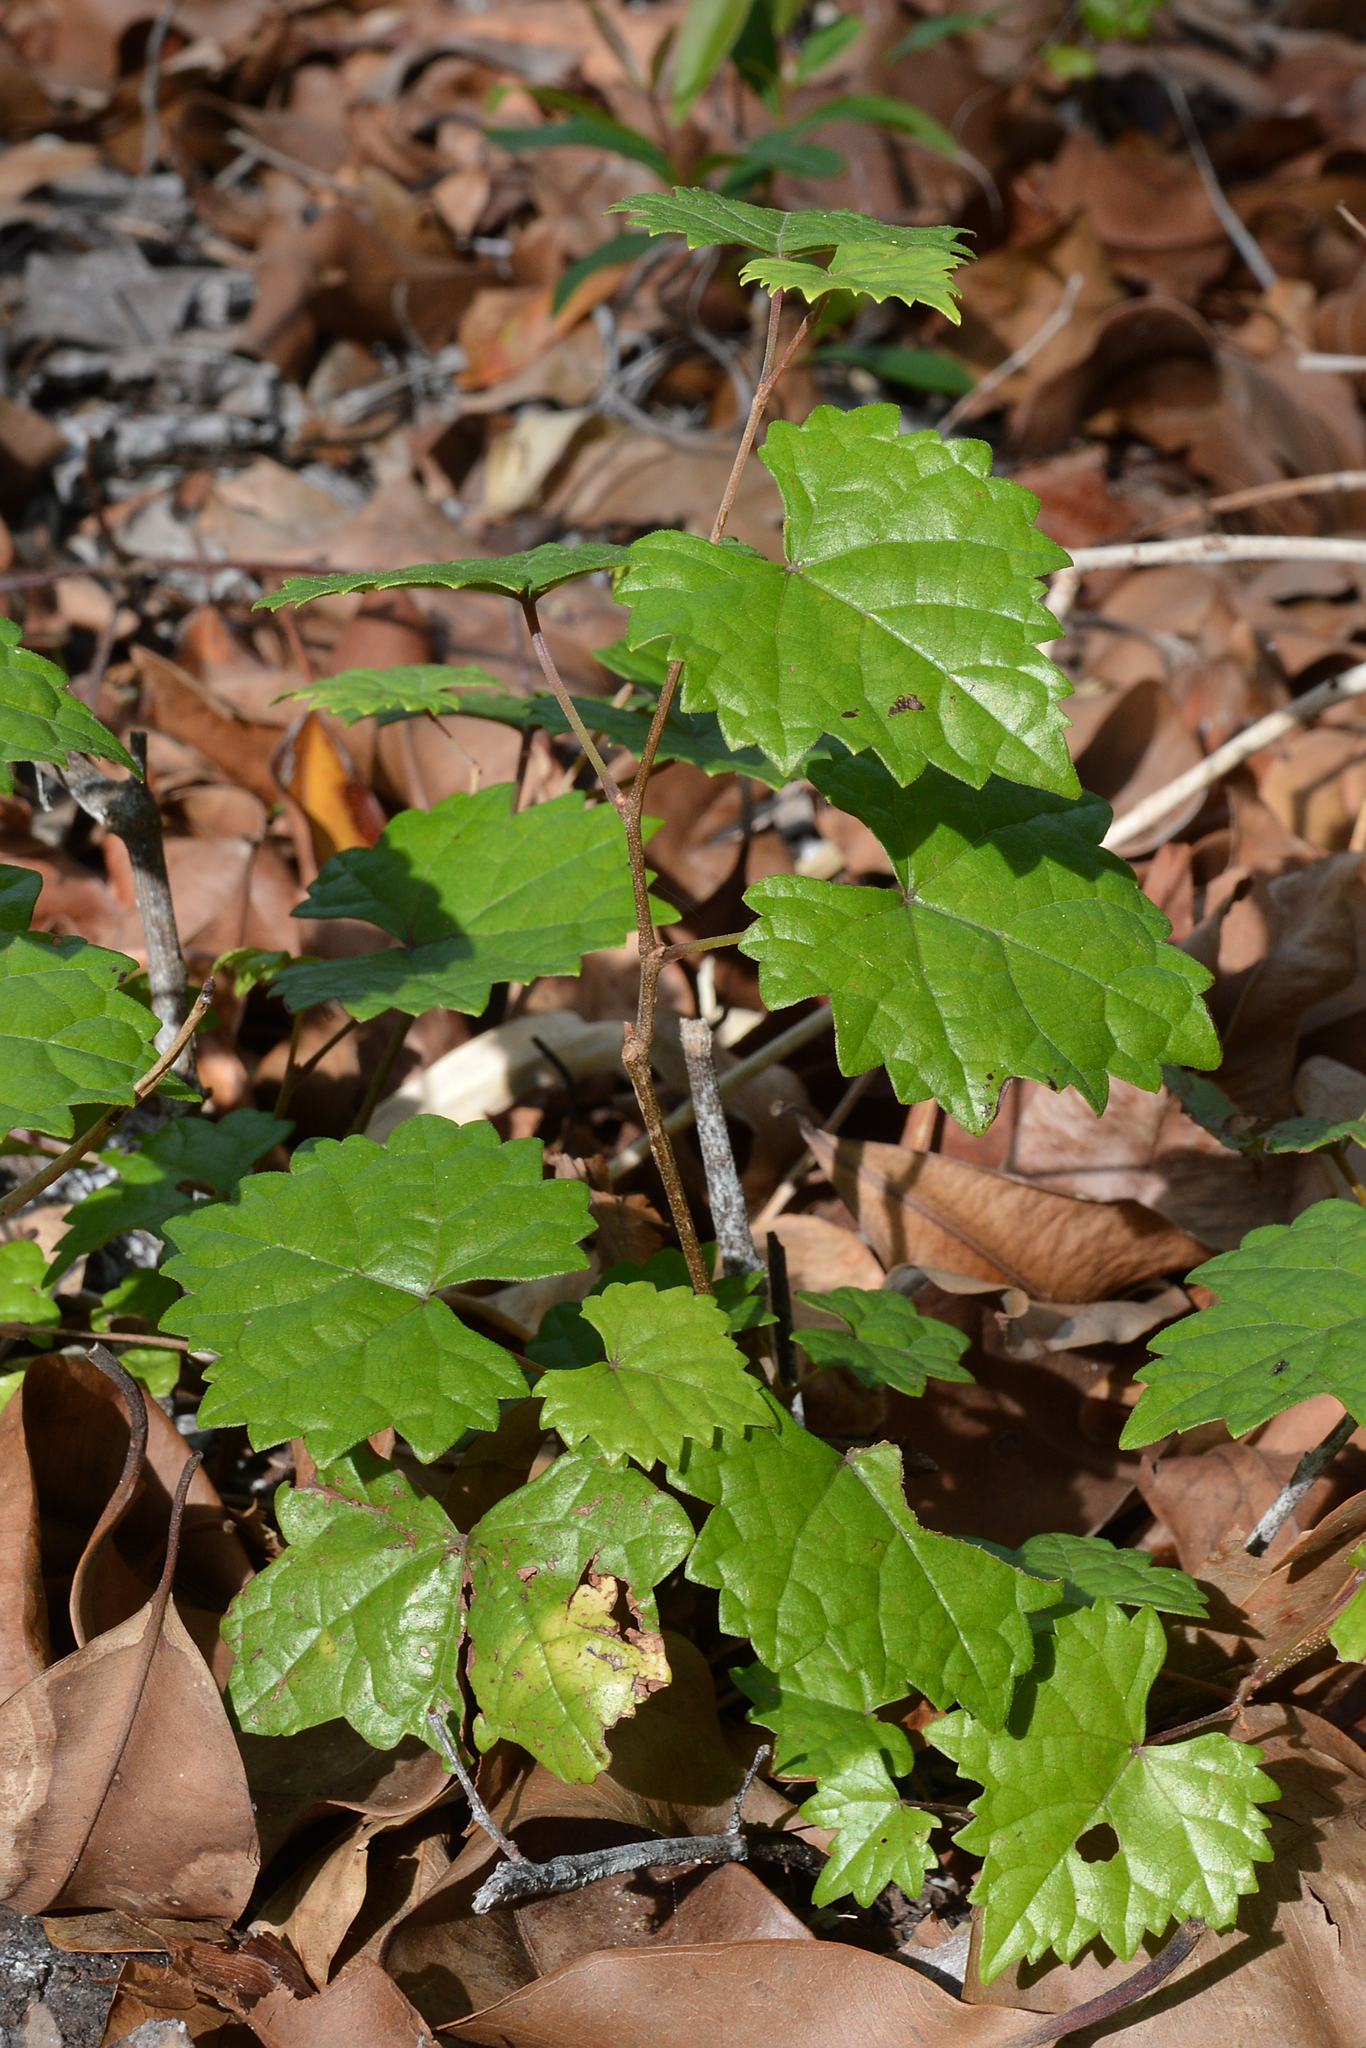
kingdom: Plantae
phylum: Tracheophyta
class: Magnoliopsida
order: Vitales
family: Vitaceae
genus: Vitis
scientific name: Vitis rotundifolia
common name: Muscadine grape
